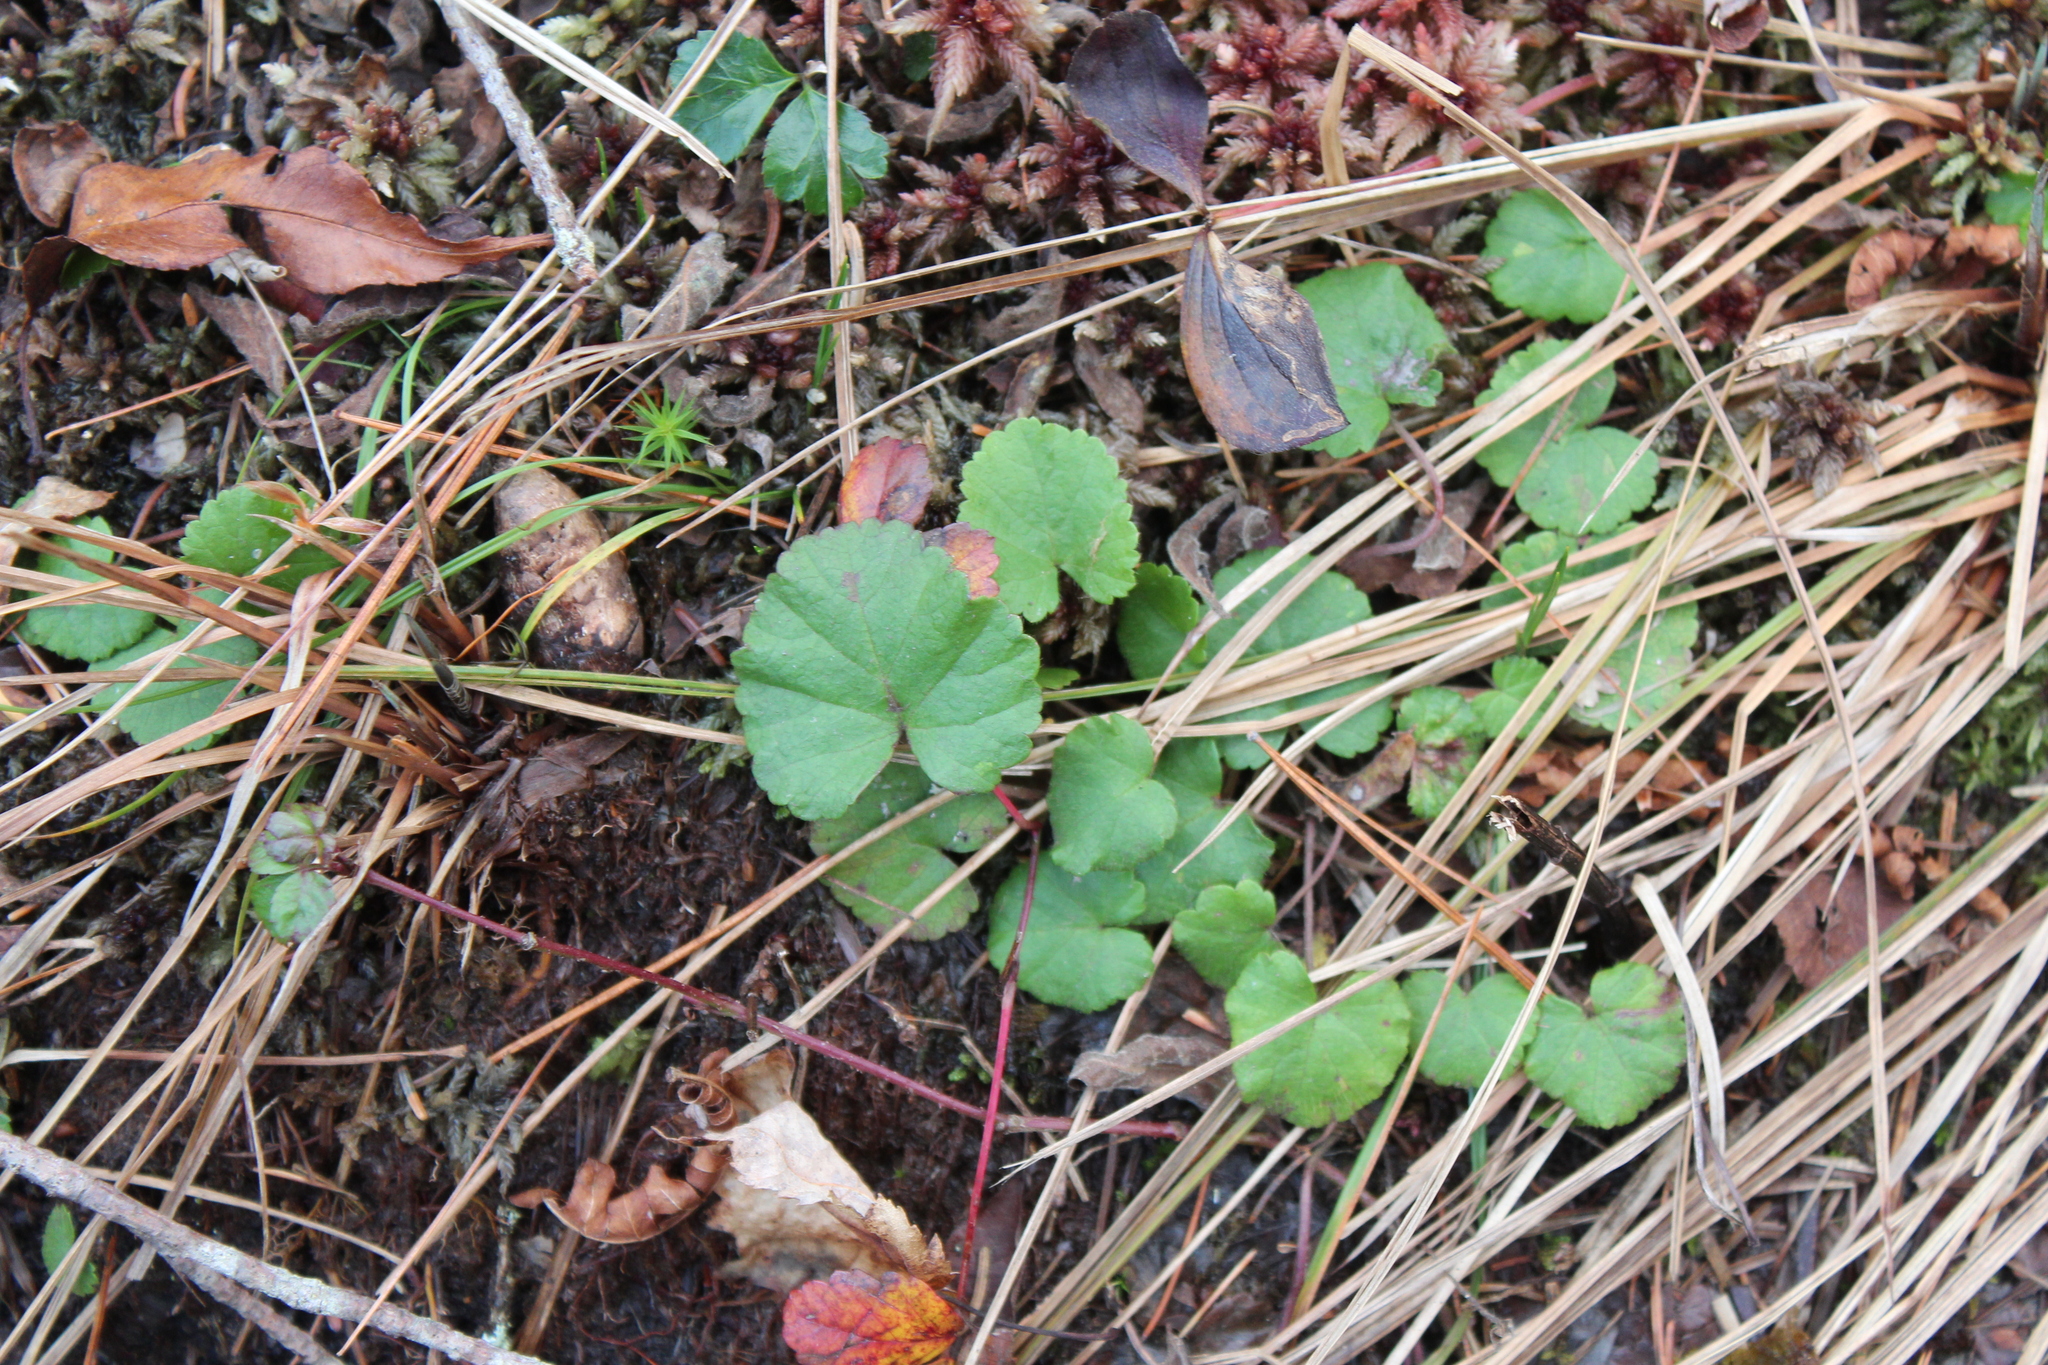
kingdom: Plantae
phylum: Tracheophyta
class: Magnoliopsida
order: Rosales
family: Rosaceae
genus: Dalibarda
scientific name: Dalibarda repens
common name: Dewdrop
